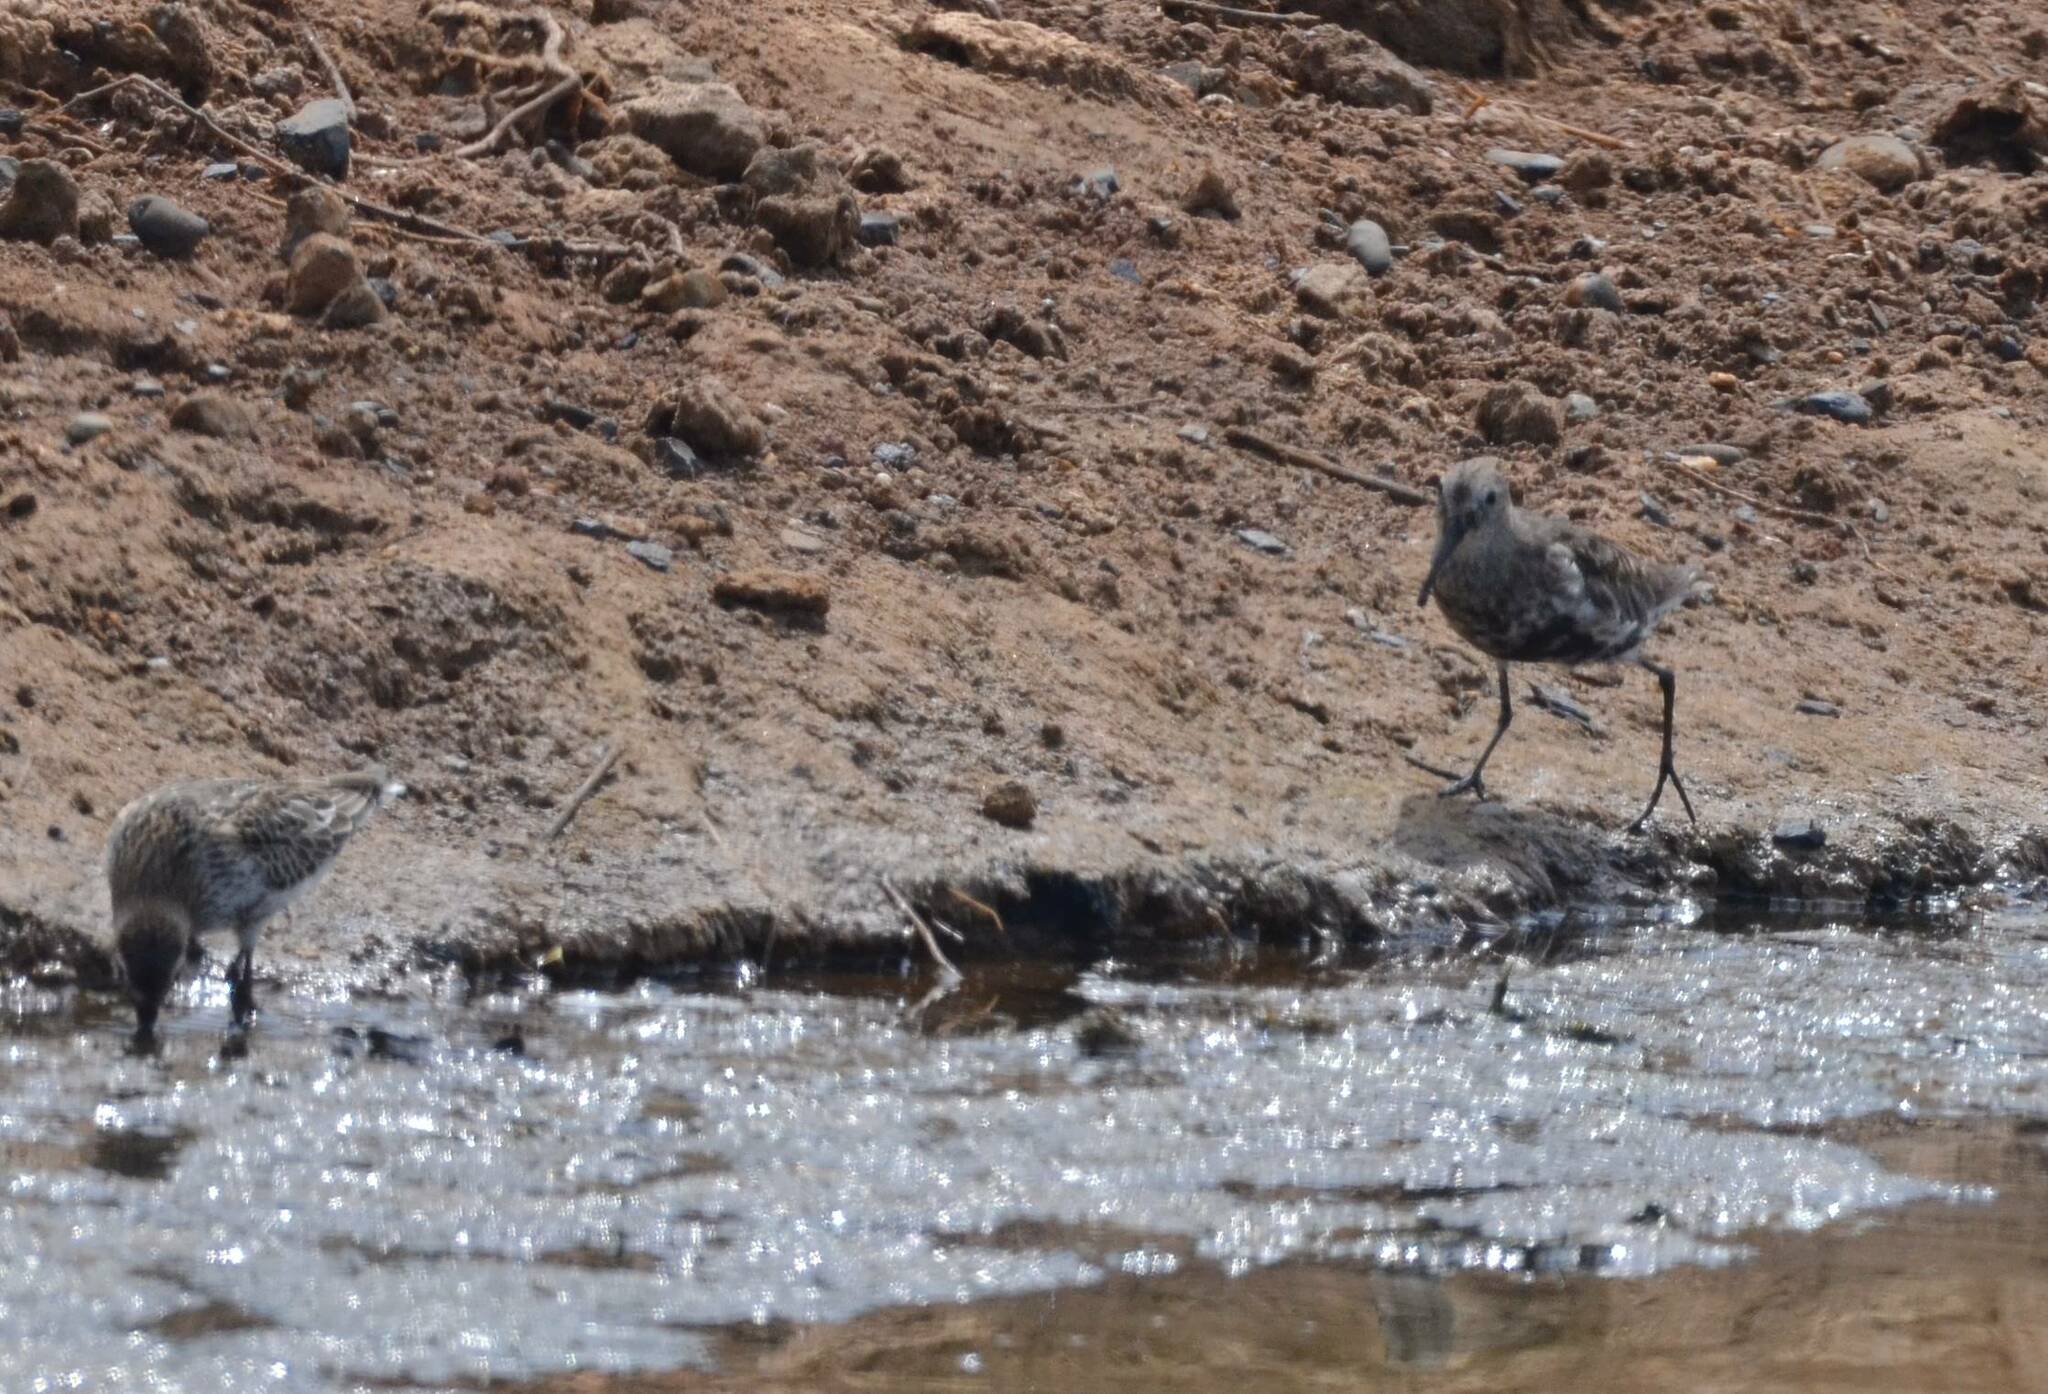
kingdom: Animalia
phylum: Chordata
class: Aves
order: Charadriiformes
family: Scolopacidae
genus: Calidris
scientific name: Calidris alpina
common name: Dunlin
